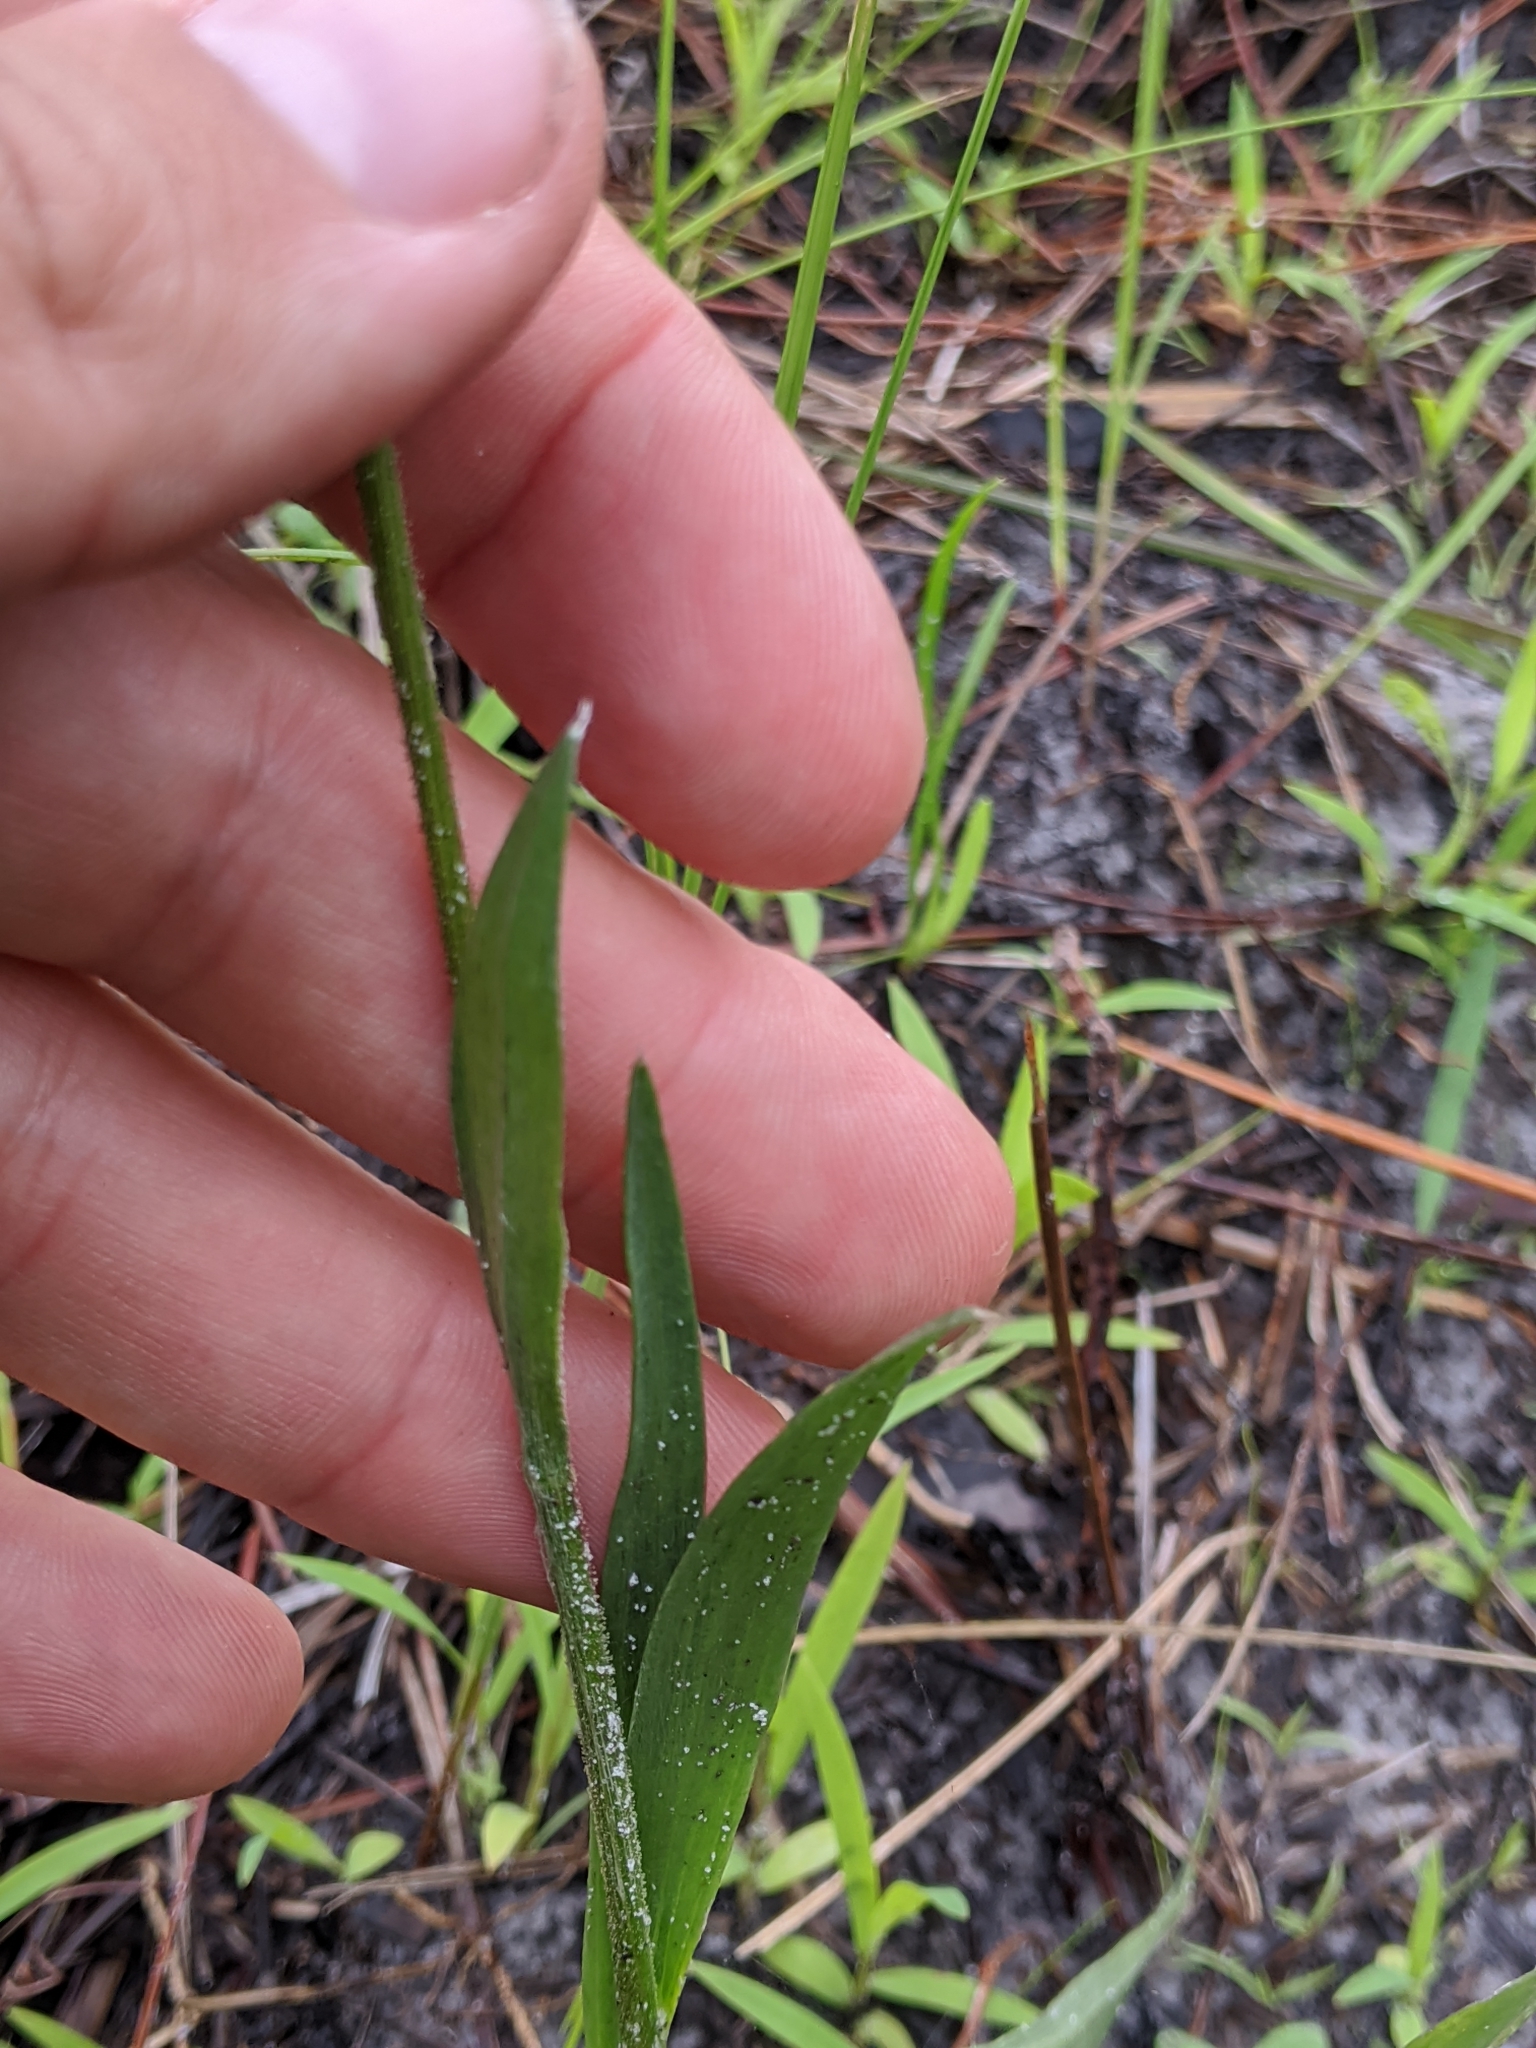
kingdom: Plantae
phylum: Tracheophyta
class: Magnoliopsida
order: Asterales
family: Asteraceae
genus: Pityopsis
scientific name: Pityopsis oligantha
